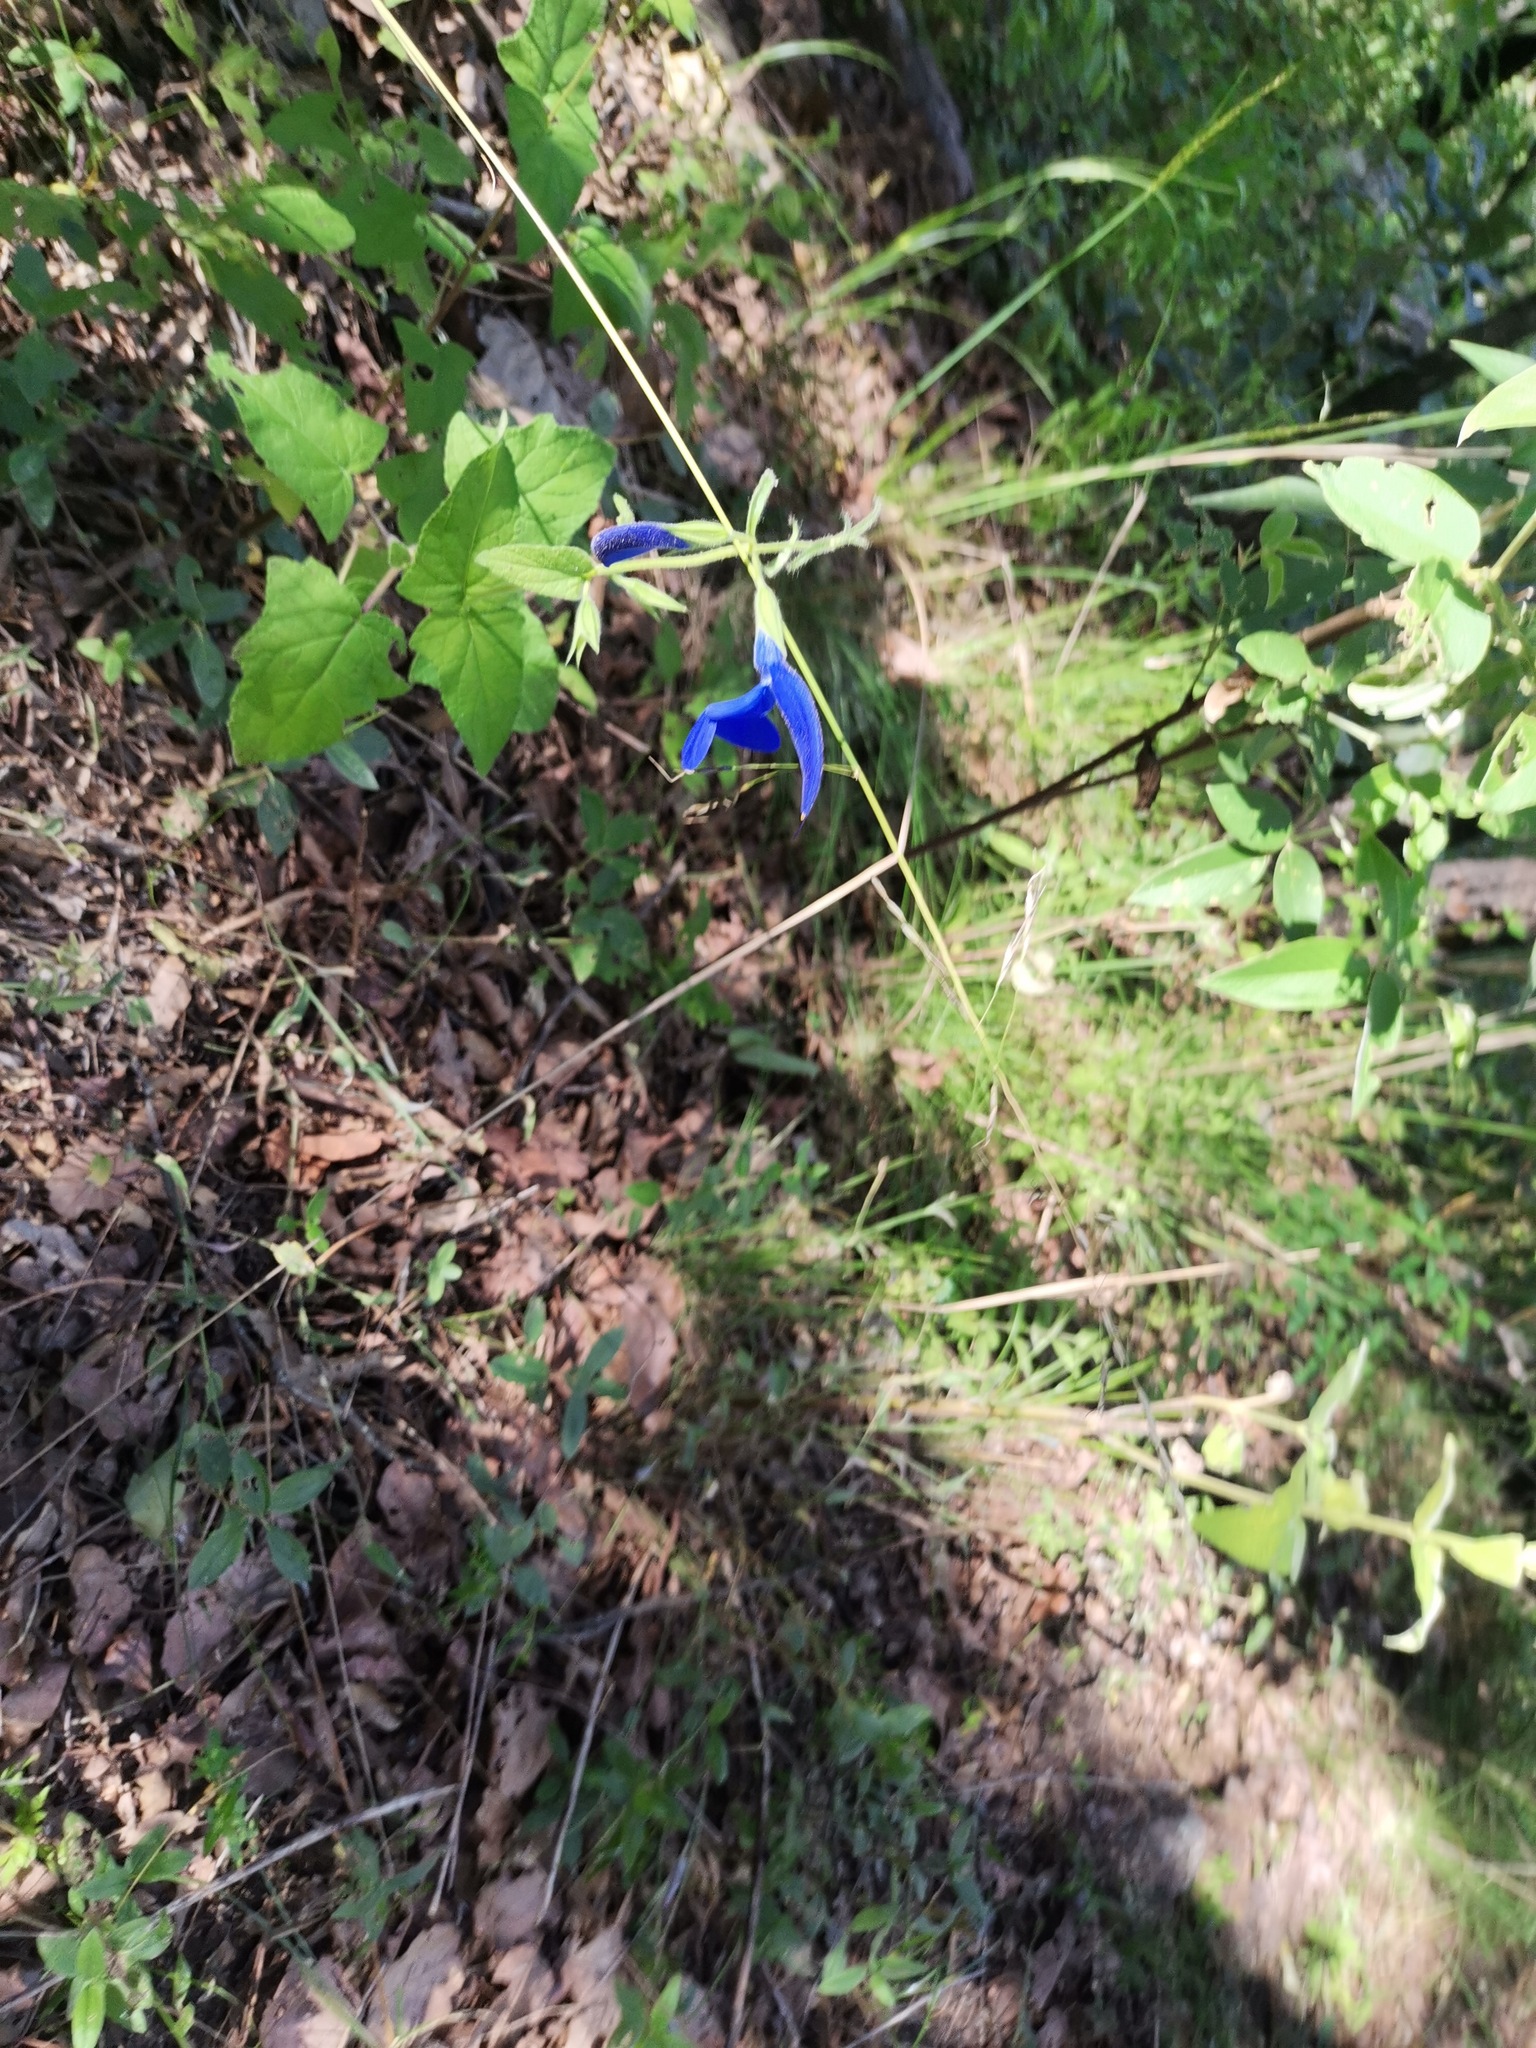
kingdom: Plantae
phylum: Tracheophyta
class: Magnoliopsida
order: Lamiales
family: Lamiaceae
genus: Salvia
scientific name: Salvia patens
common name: Blue sage
